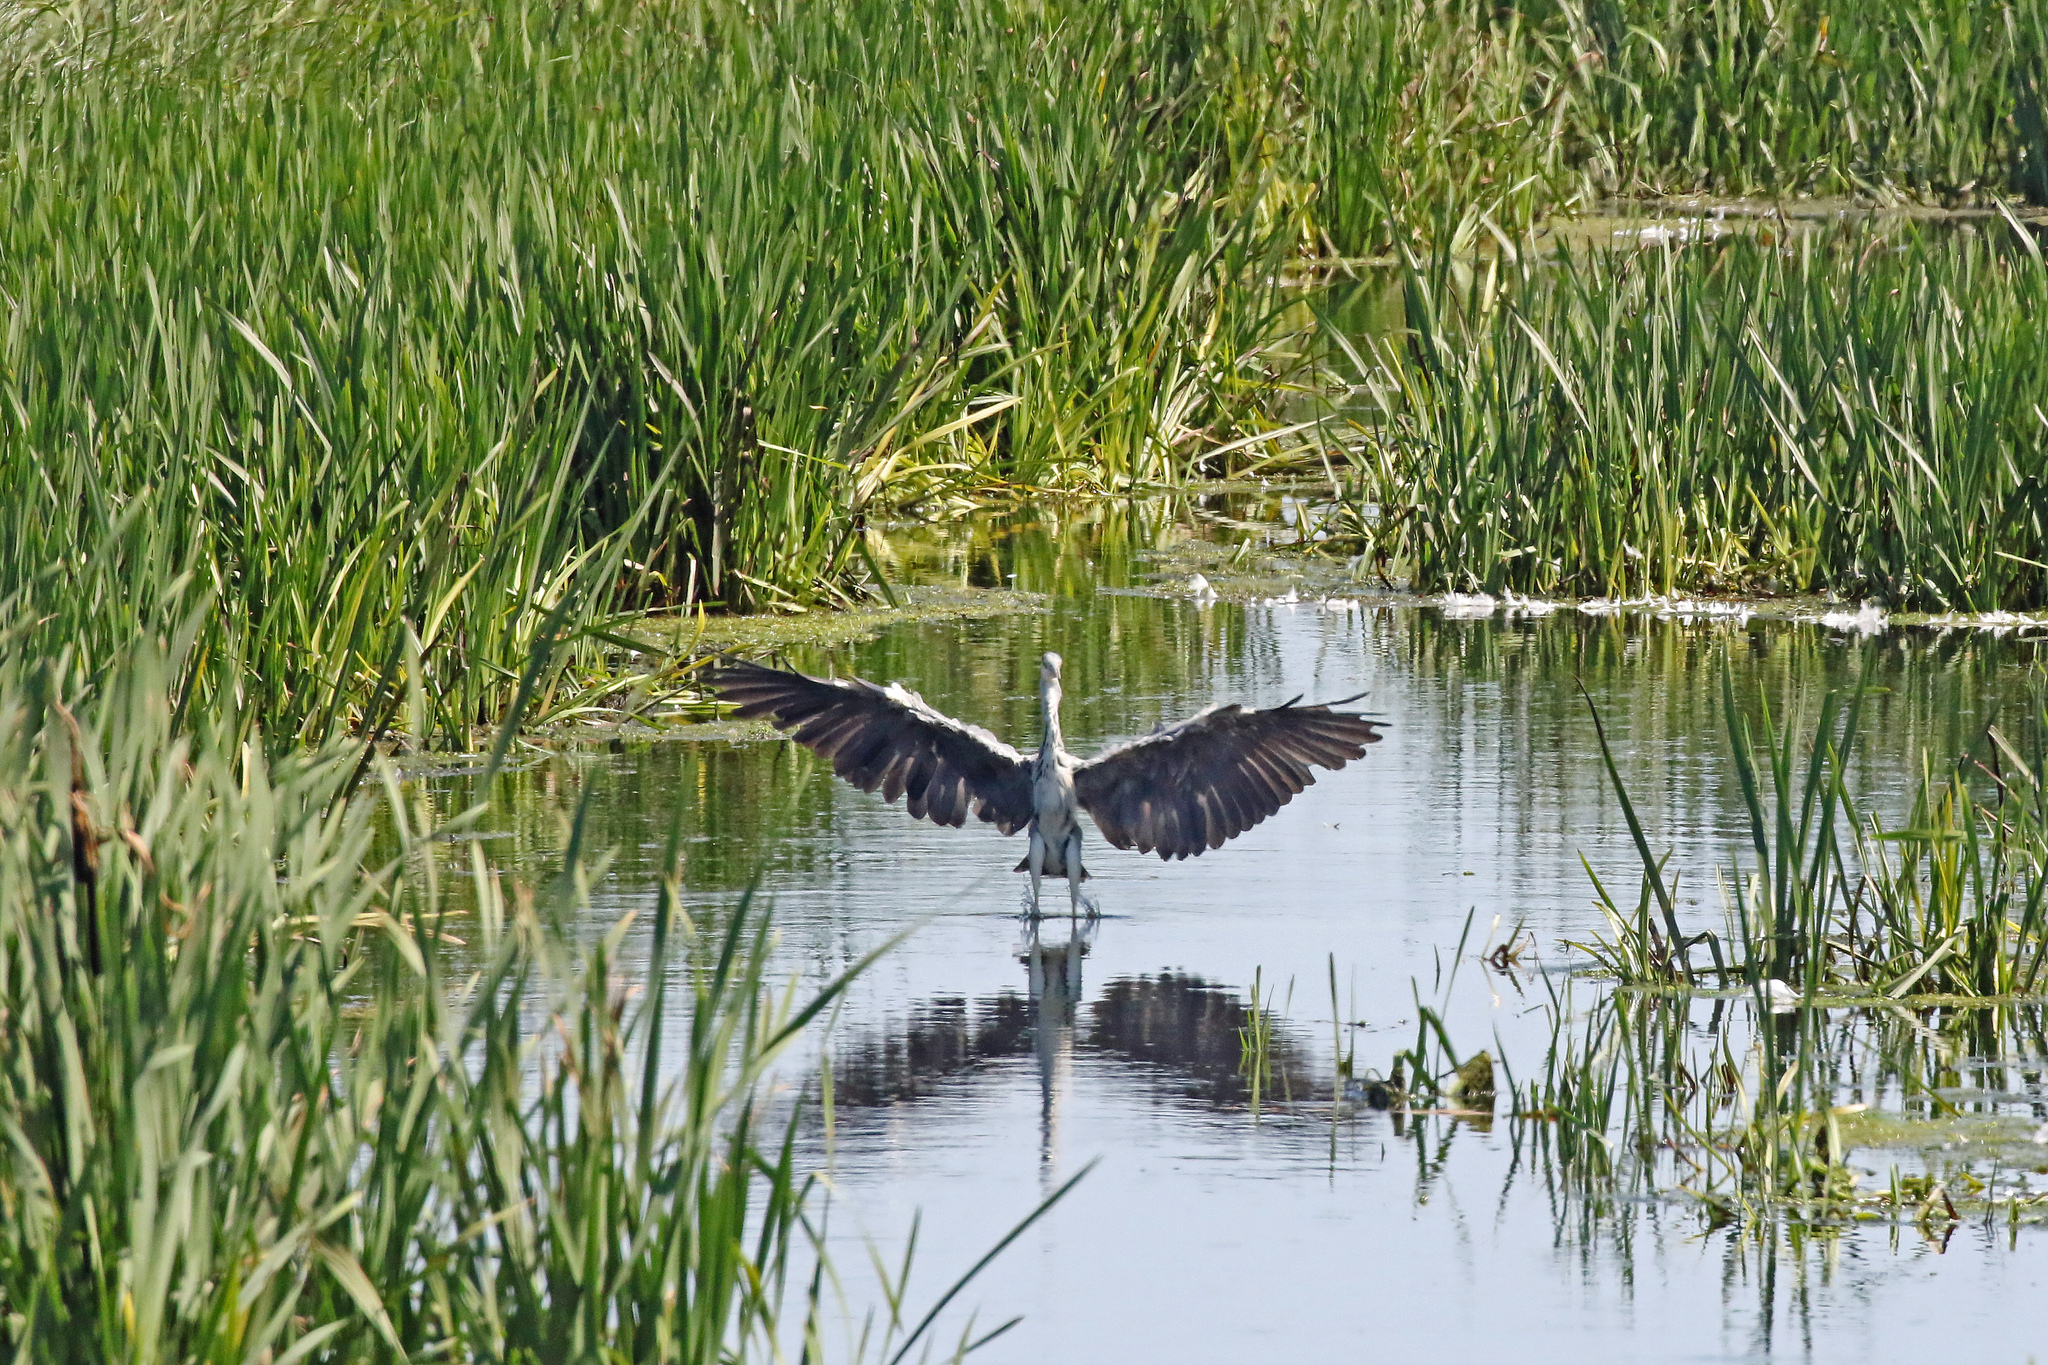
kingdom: Animalia
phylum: Chordata
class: Aves
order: Pelecaniformes
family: Ardeidae
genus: Ardea
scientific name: Ardea cinerea
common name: Grey heron
